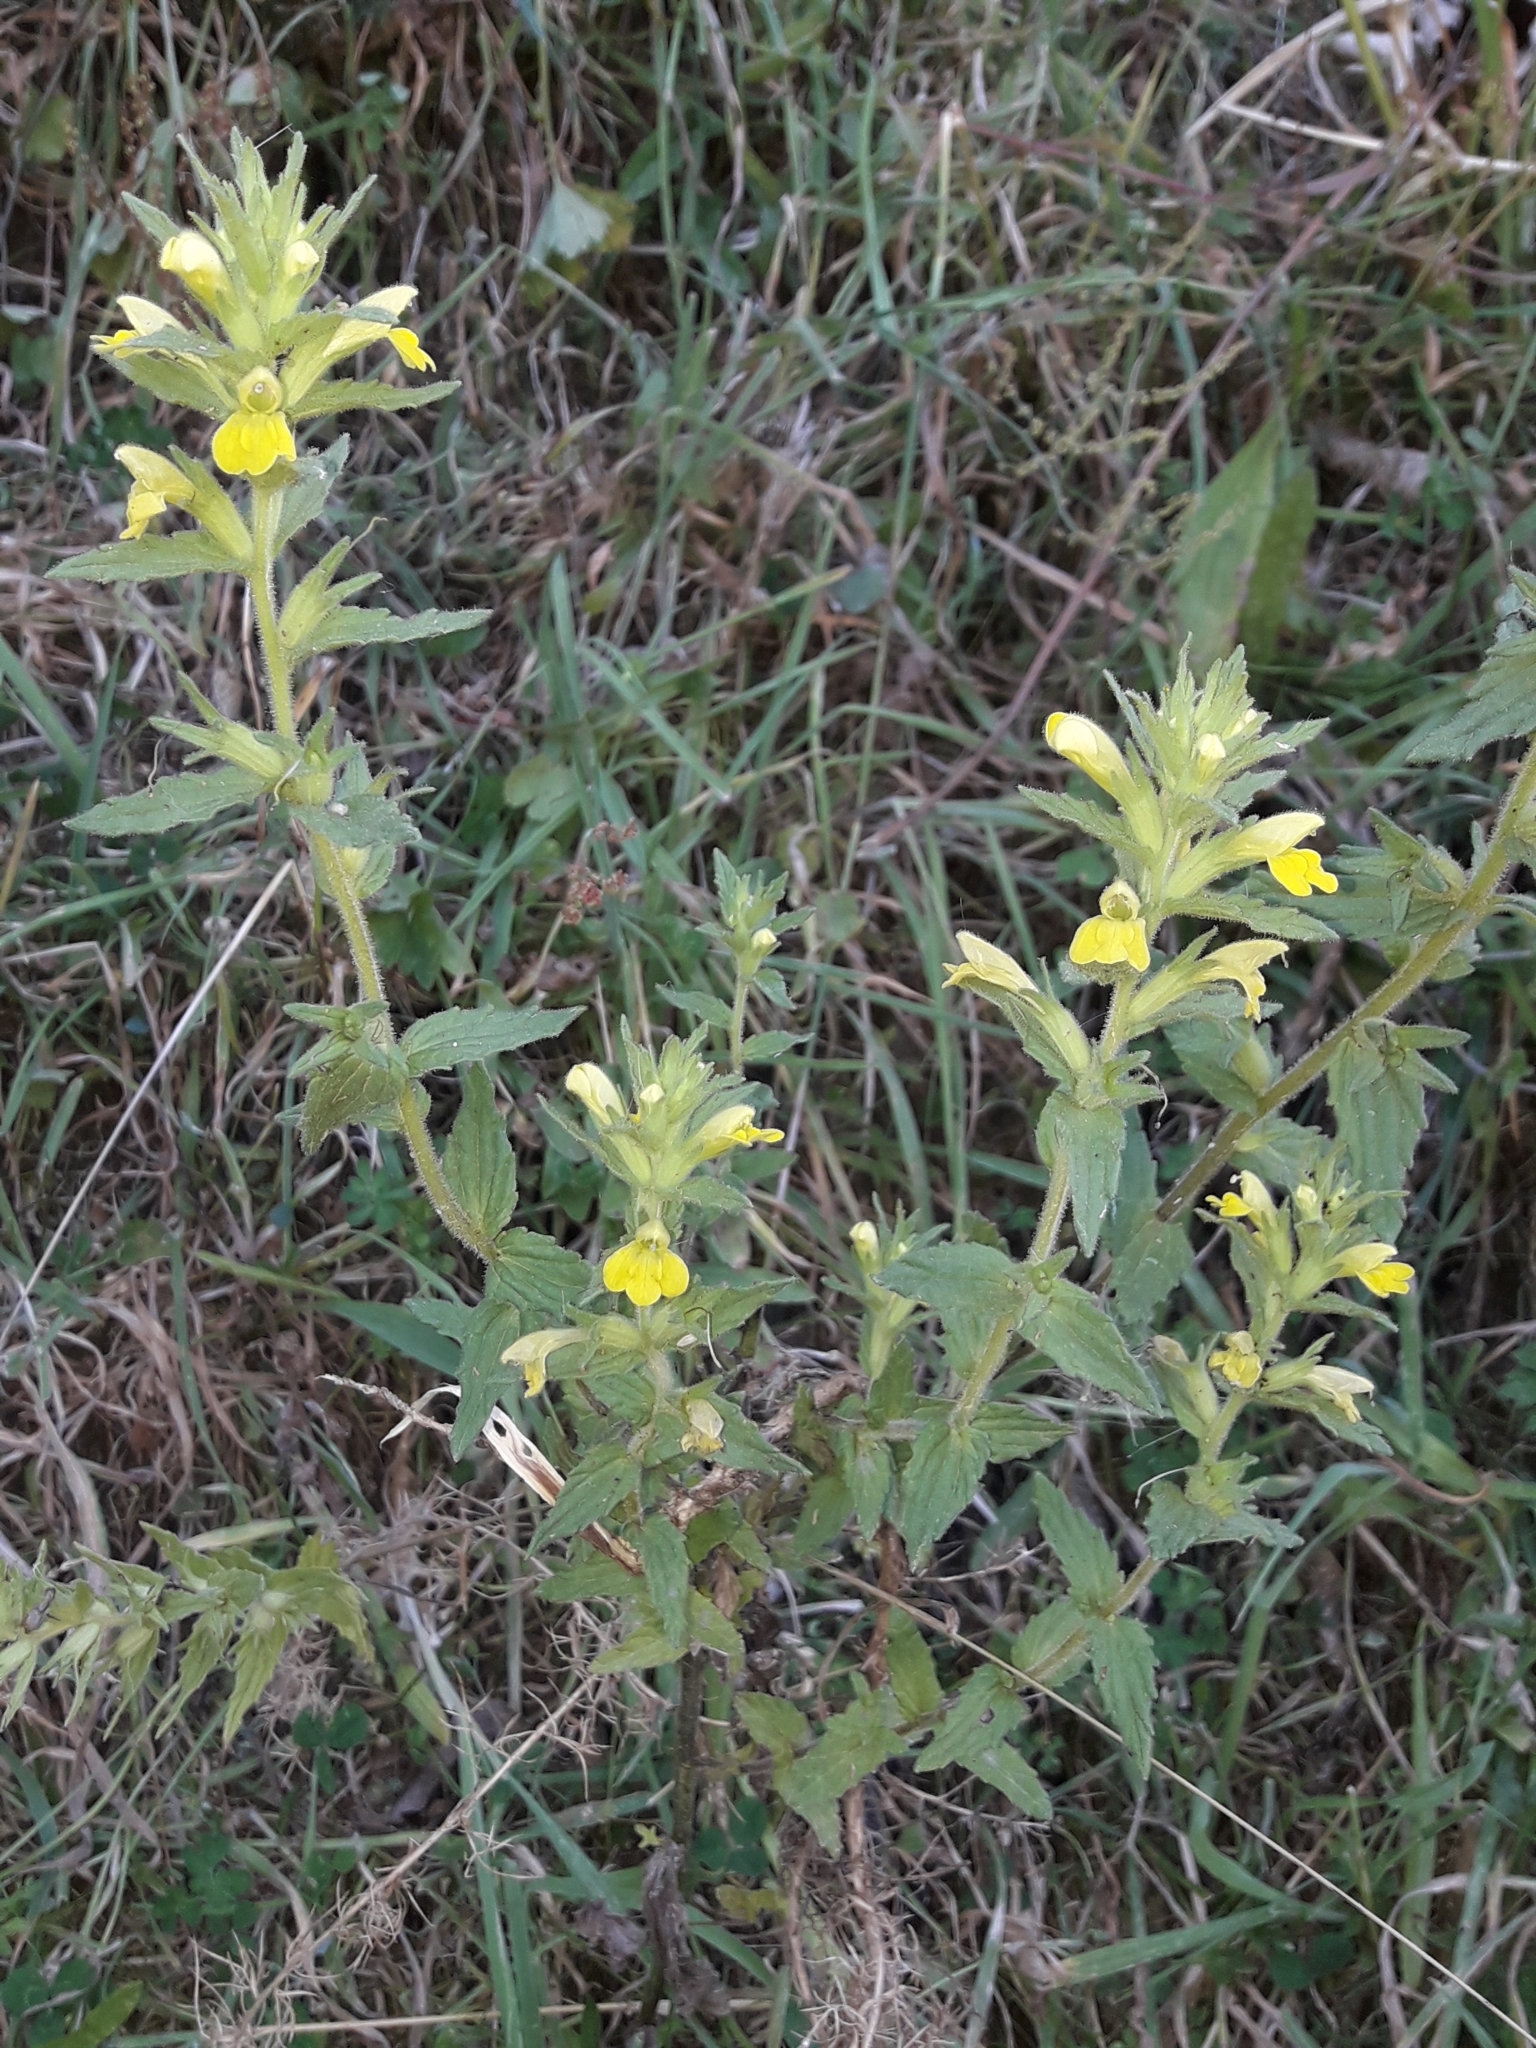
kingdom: Plantae
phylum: Tracheophyta
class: Magnoliopsida
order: Lamiales
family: Orobanchaceae
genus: Bellardia
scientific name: Bellardia viscosa
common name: Sticky parentucellia
